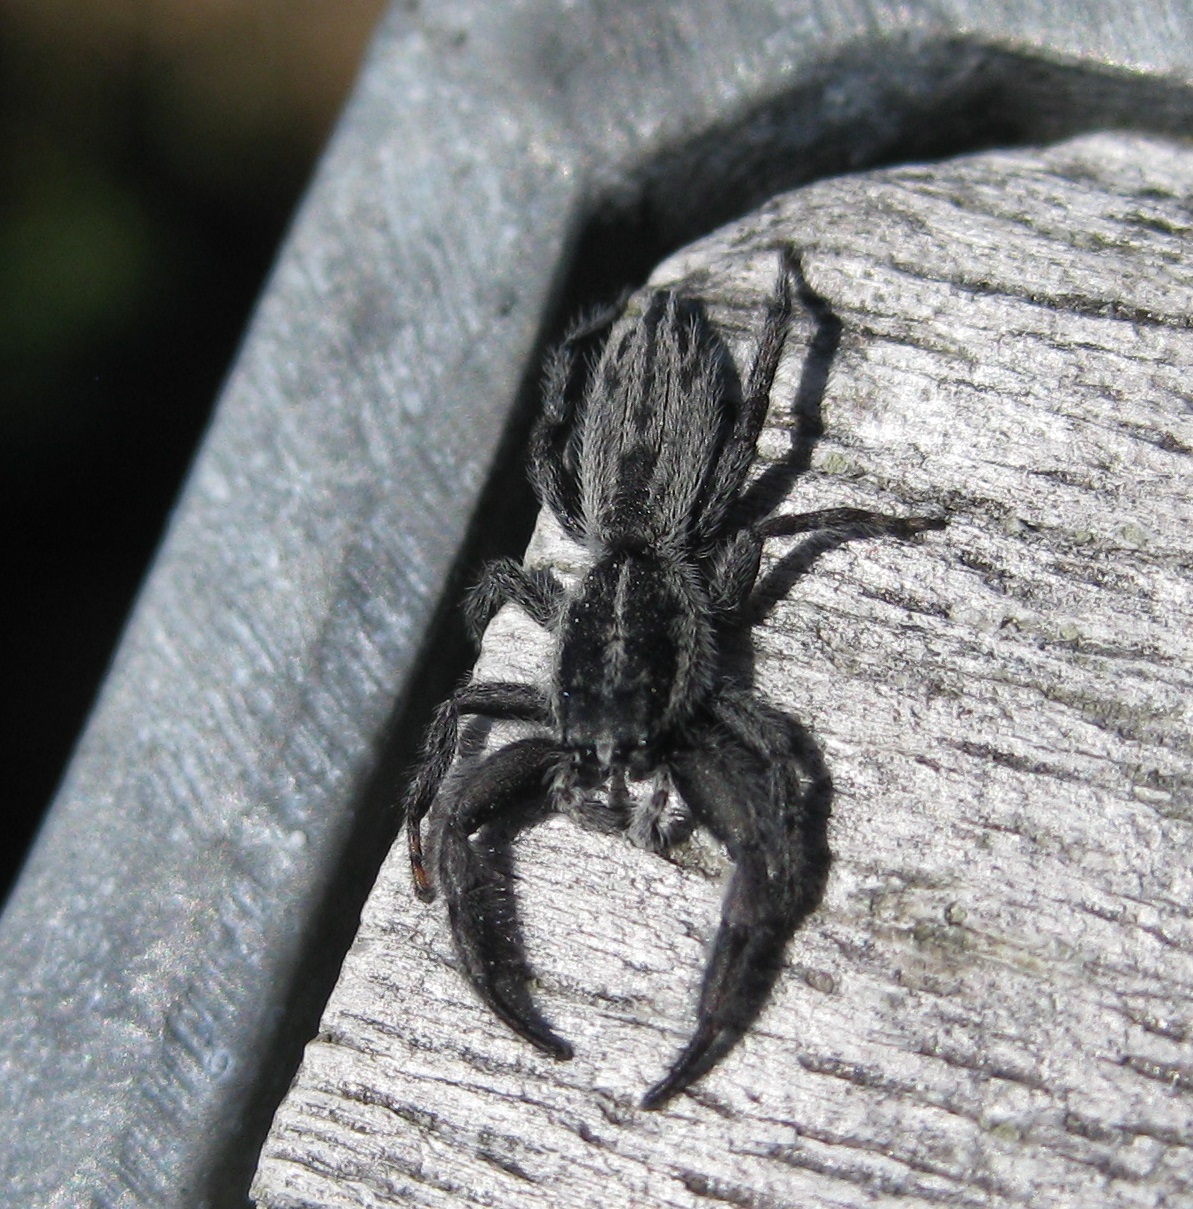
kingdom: Animalia
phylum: Arthropoda
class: Arachnida
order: Araneae
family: Salticidae
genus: Holoplatys
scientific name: Holoplatys apressus
